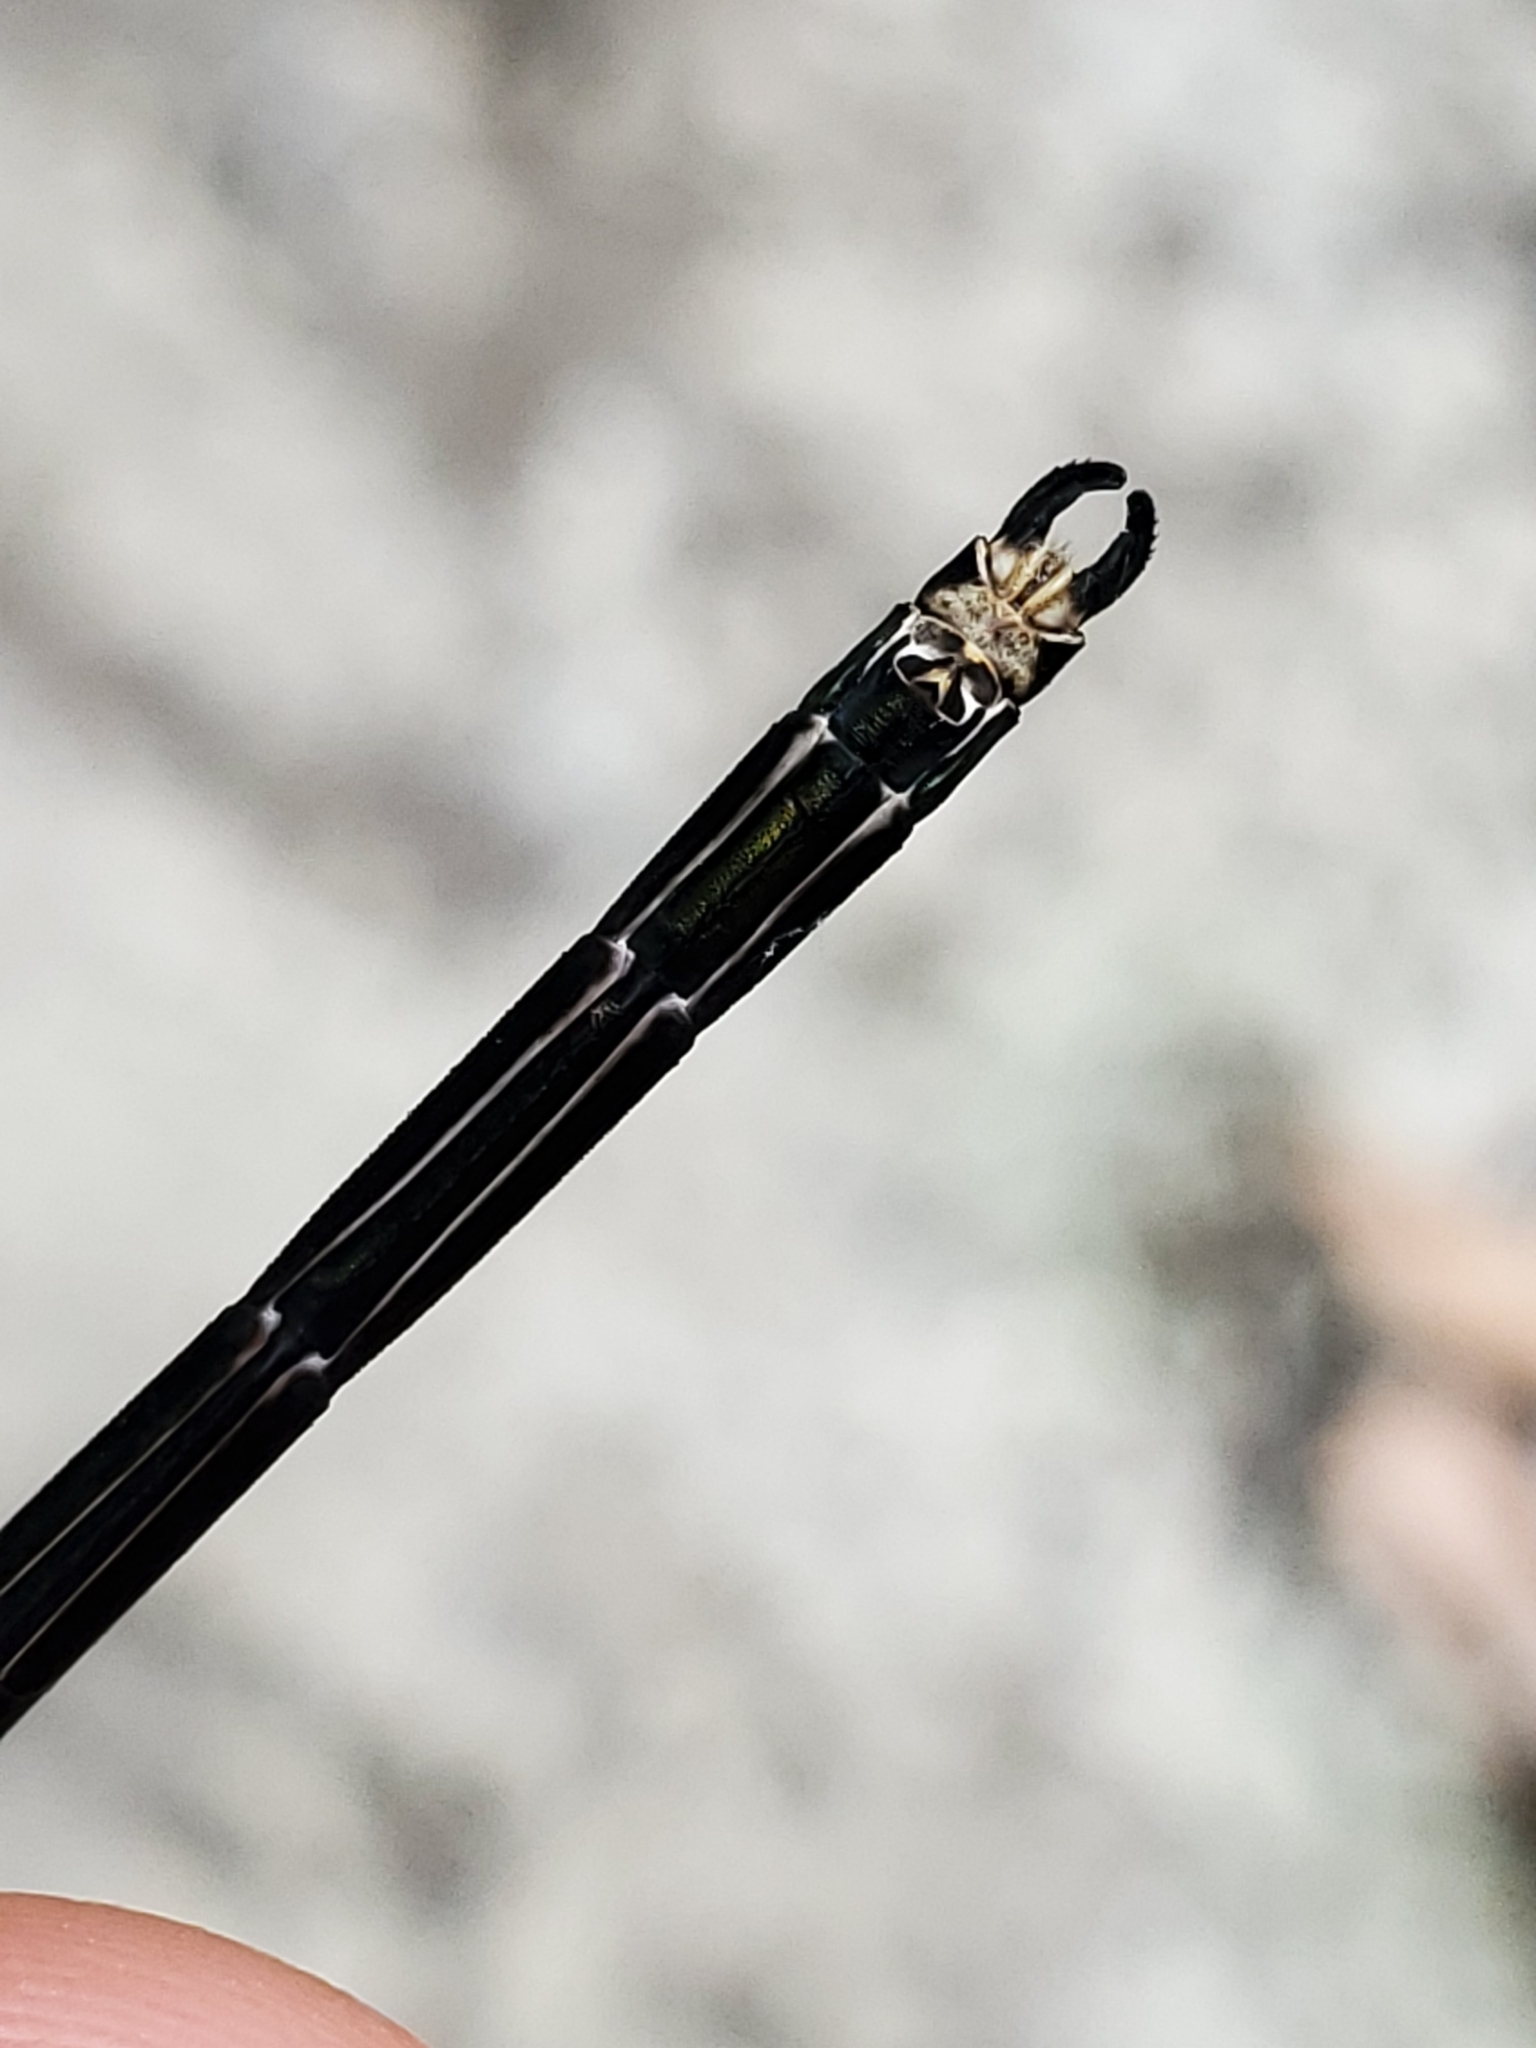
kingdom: Animalia
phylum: Arthropoda
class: Insecta
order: Odonata
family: Calopterygidae
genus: Calopteryx
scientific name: Calopteryx amata
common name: Superb jewelwing
